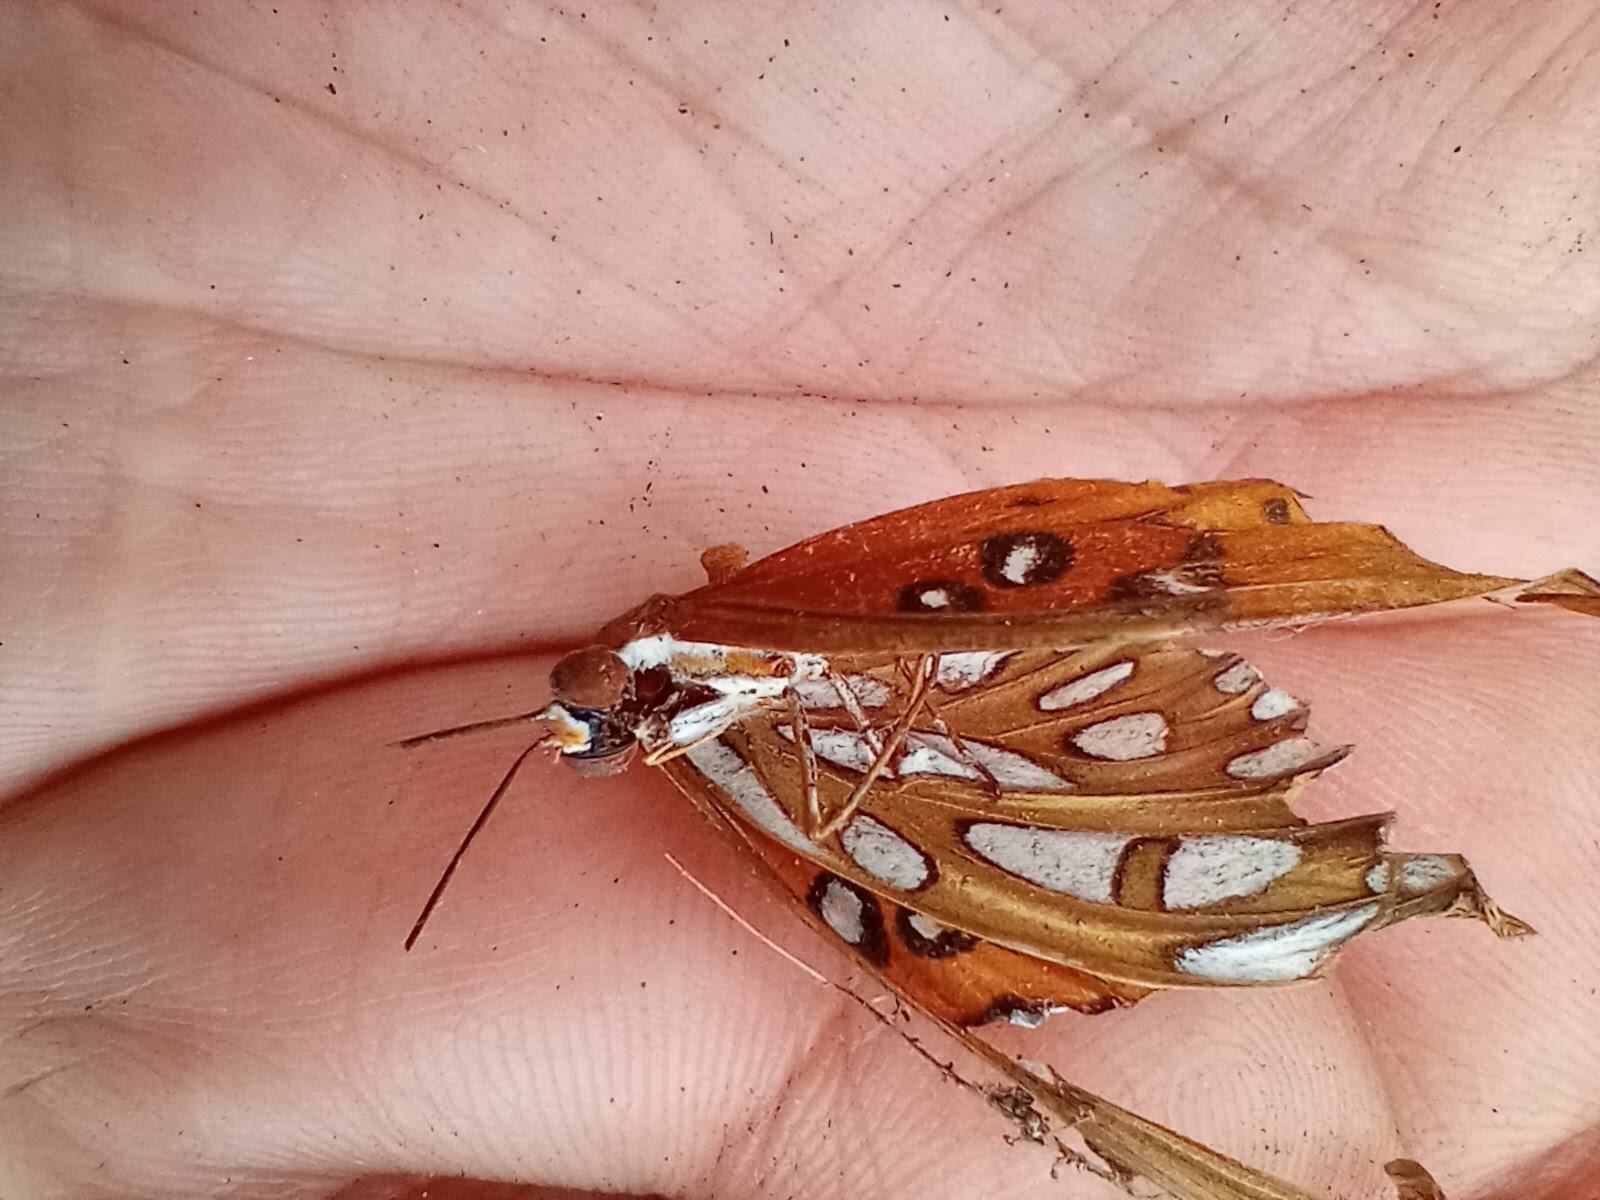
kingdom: Animalia
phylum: Arthropoda
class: Insecta
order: Lepidoptera
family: Nymphalidae
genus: Dione
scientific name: Dione vanillae
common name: Gulf fritillary
